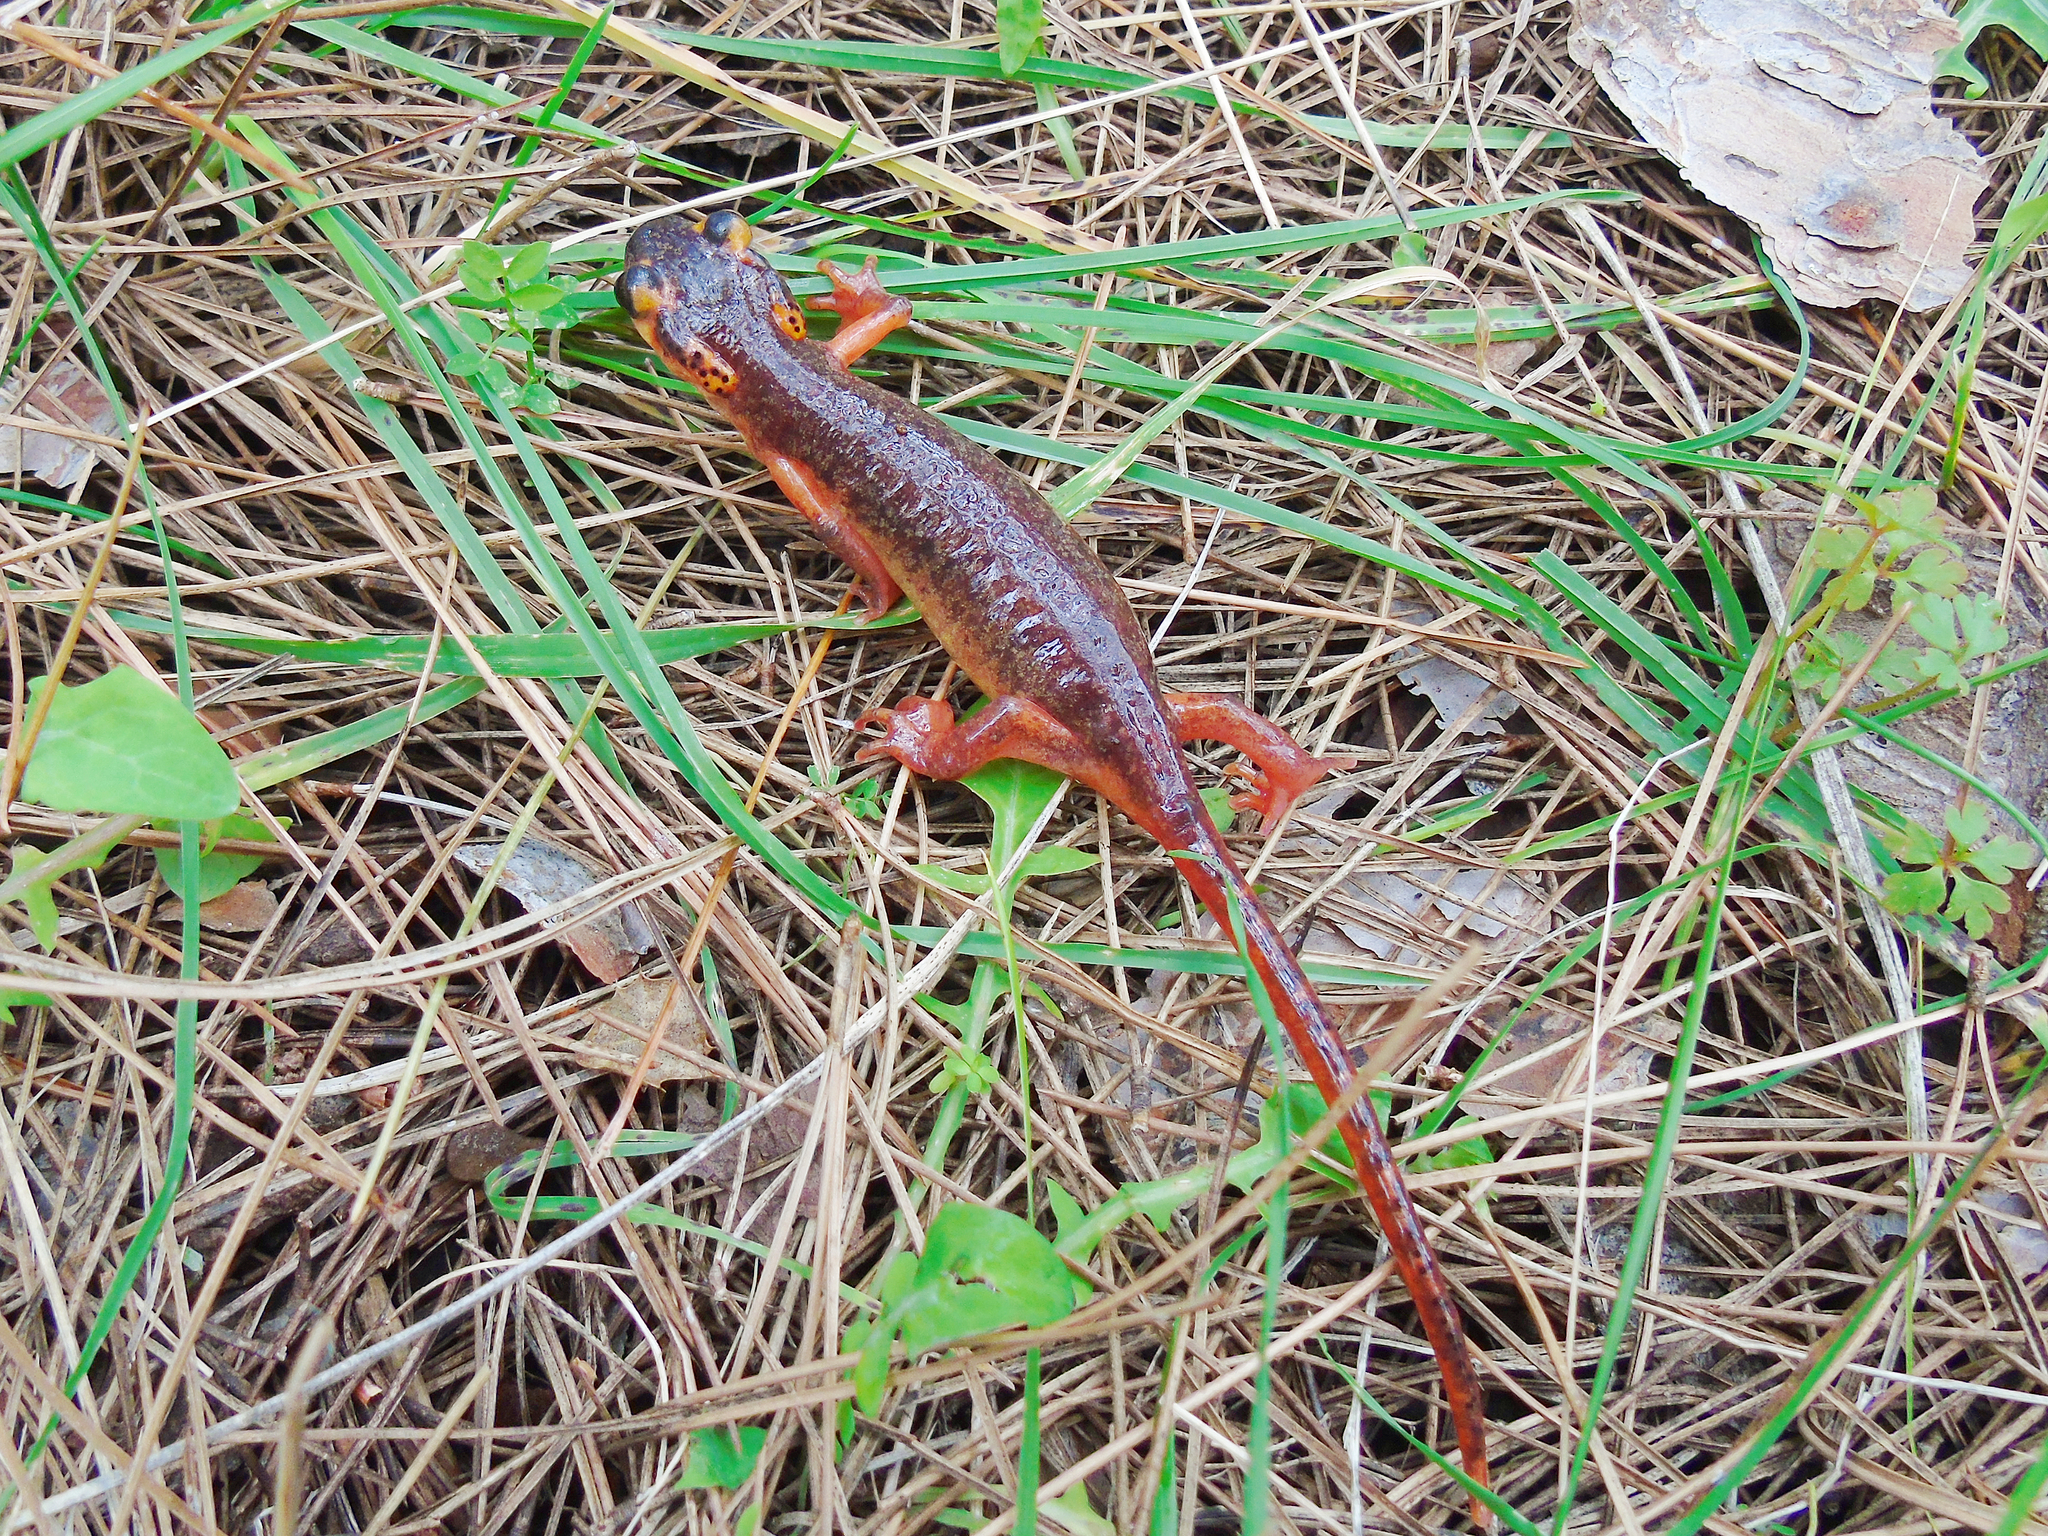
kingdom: Animalia
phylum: Chordata
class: Amphibia
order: Caudata
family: Salamandridae
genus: Lyciasalamandra
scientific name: Lyciasalamandra
